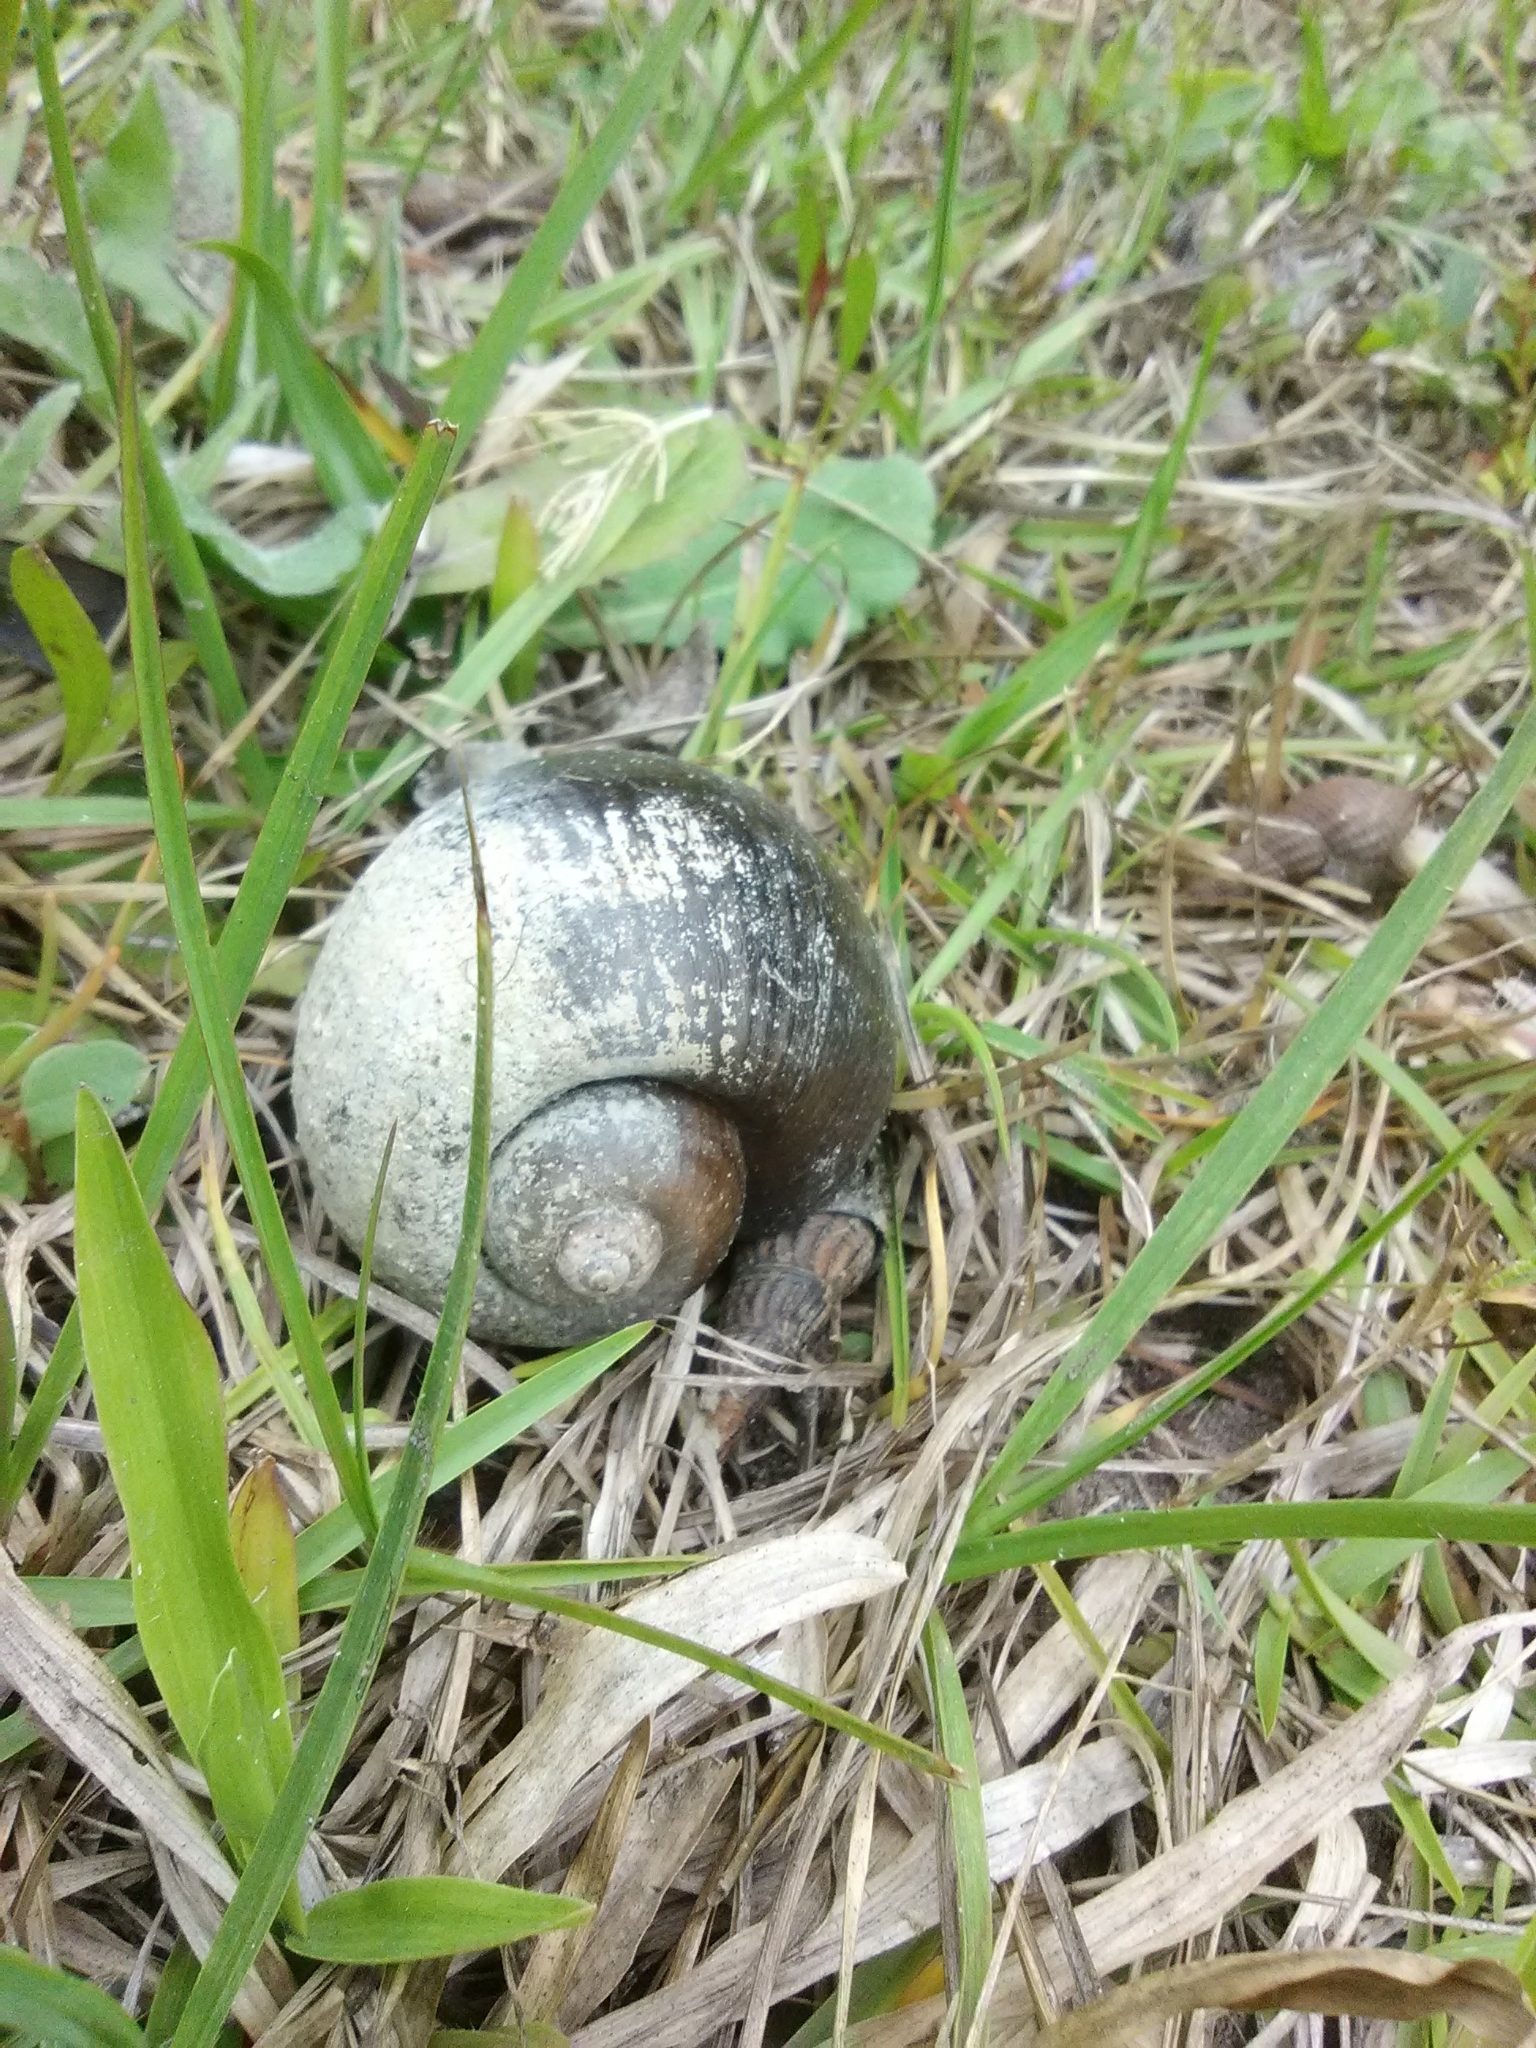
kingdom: Animalia
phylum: Mollusca
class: Gastropoda
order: Architaenioglossa
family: Ampullariidae
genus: Pomacea
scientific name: Pomacea canaliculata
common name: Channeled applesnail
